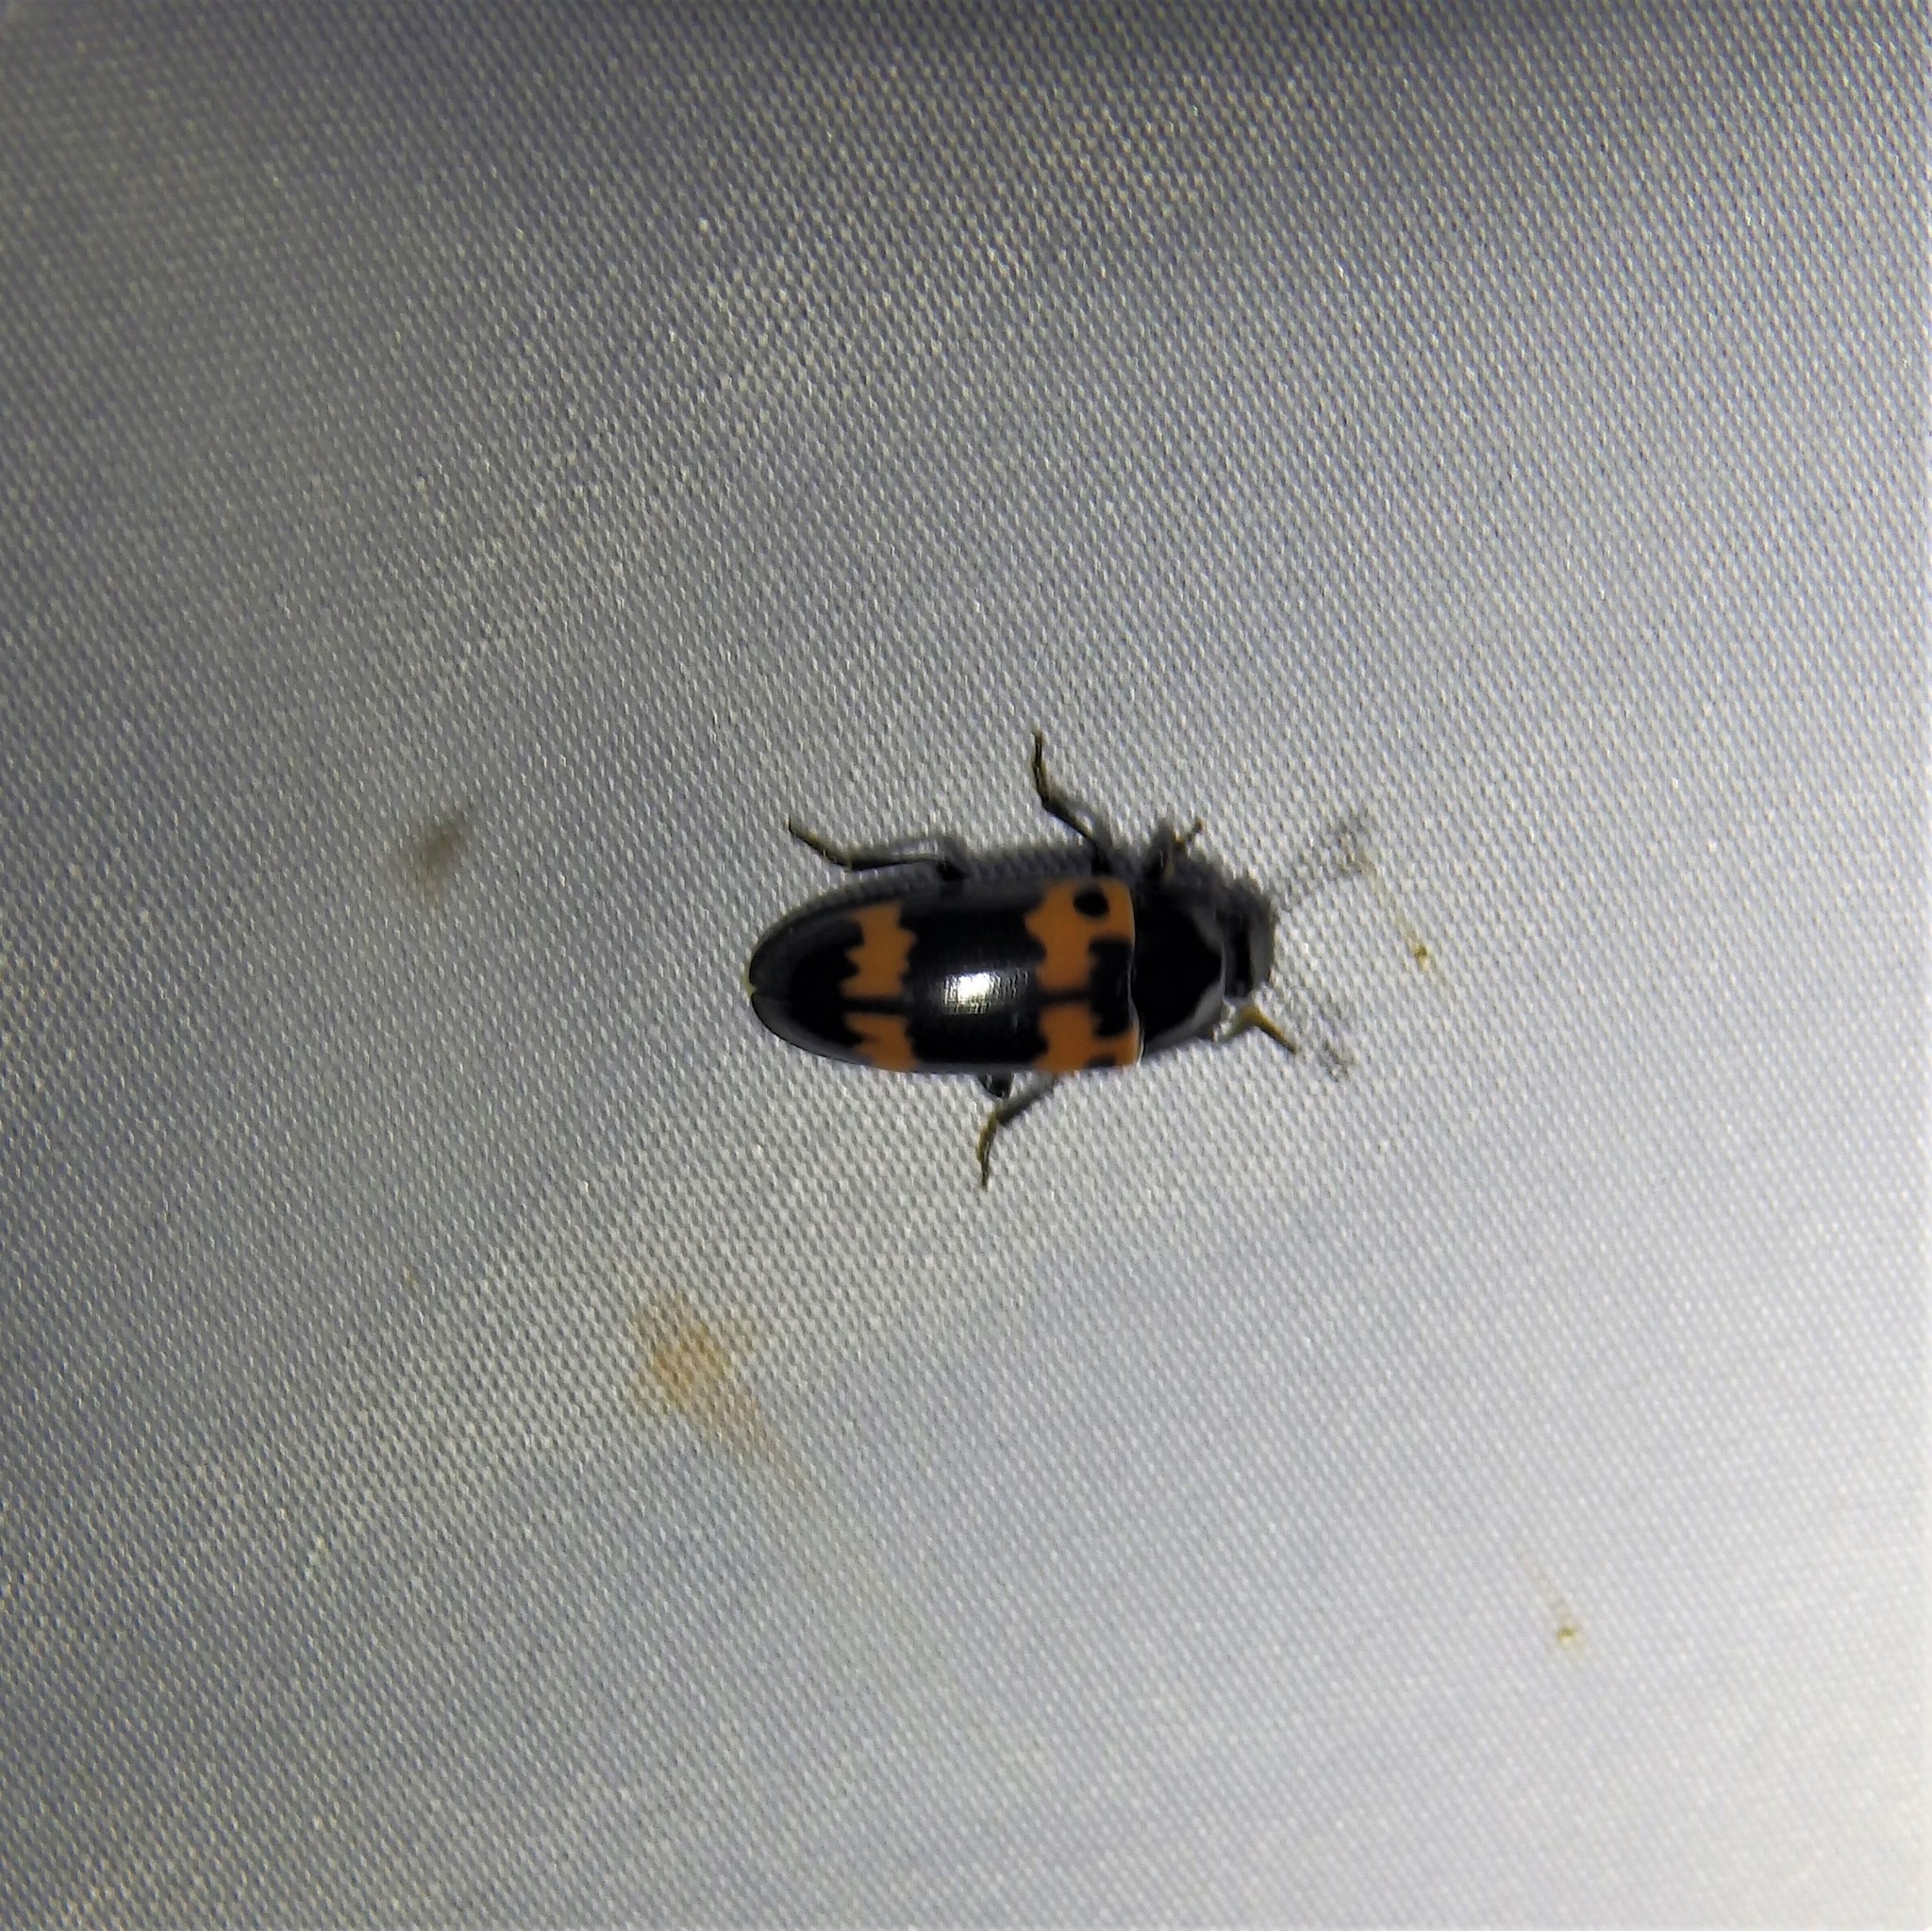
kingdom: Animalia
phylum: Arthropoda
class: Insecta
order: Coleoptera
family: Erotylidae
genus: Megalodacne
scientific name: Megalodacne fasciata
